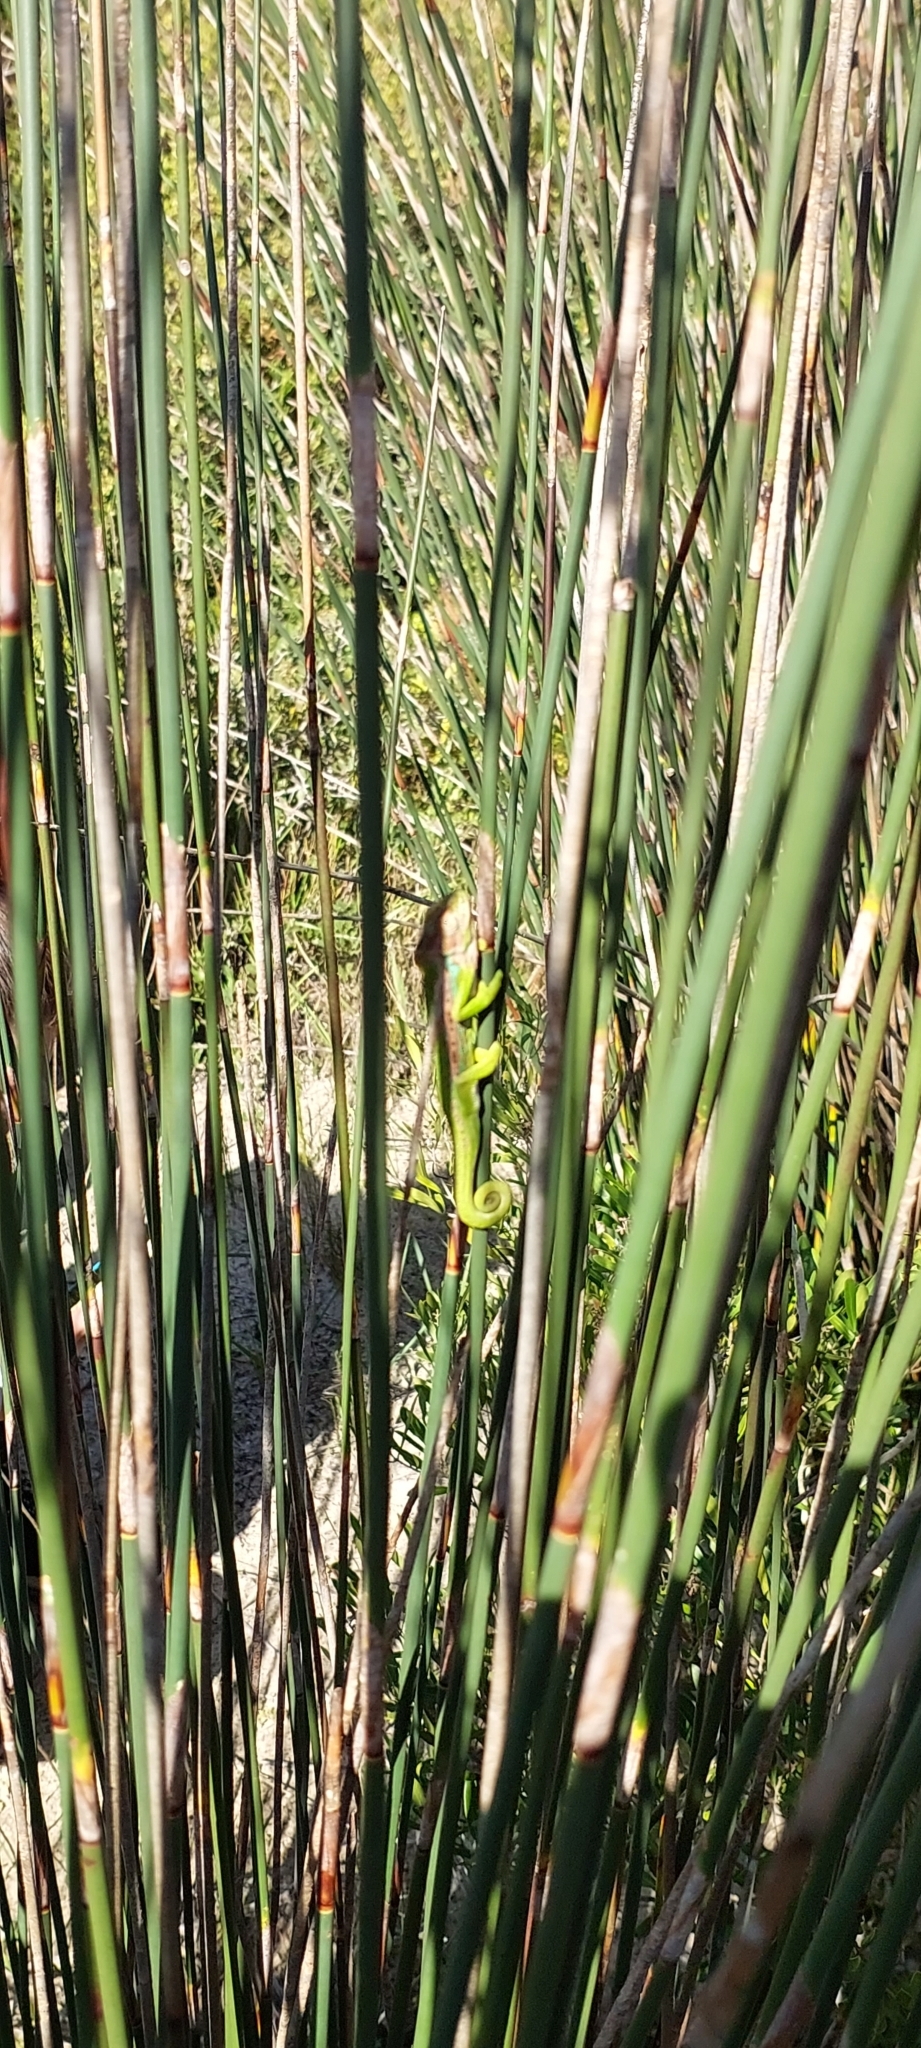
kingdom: Animalia
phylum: Chordata
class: Squamata
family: Chamaeleonidae
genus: Bradypodion
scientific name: Bradypodion pumilum
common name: Cape dwarf chameleon
